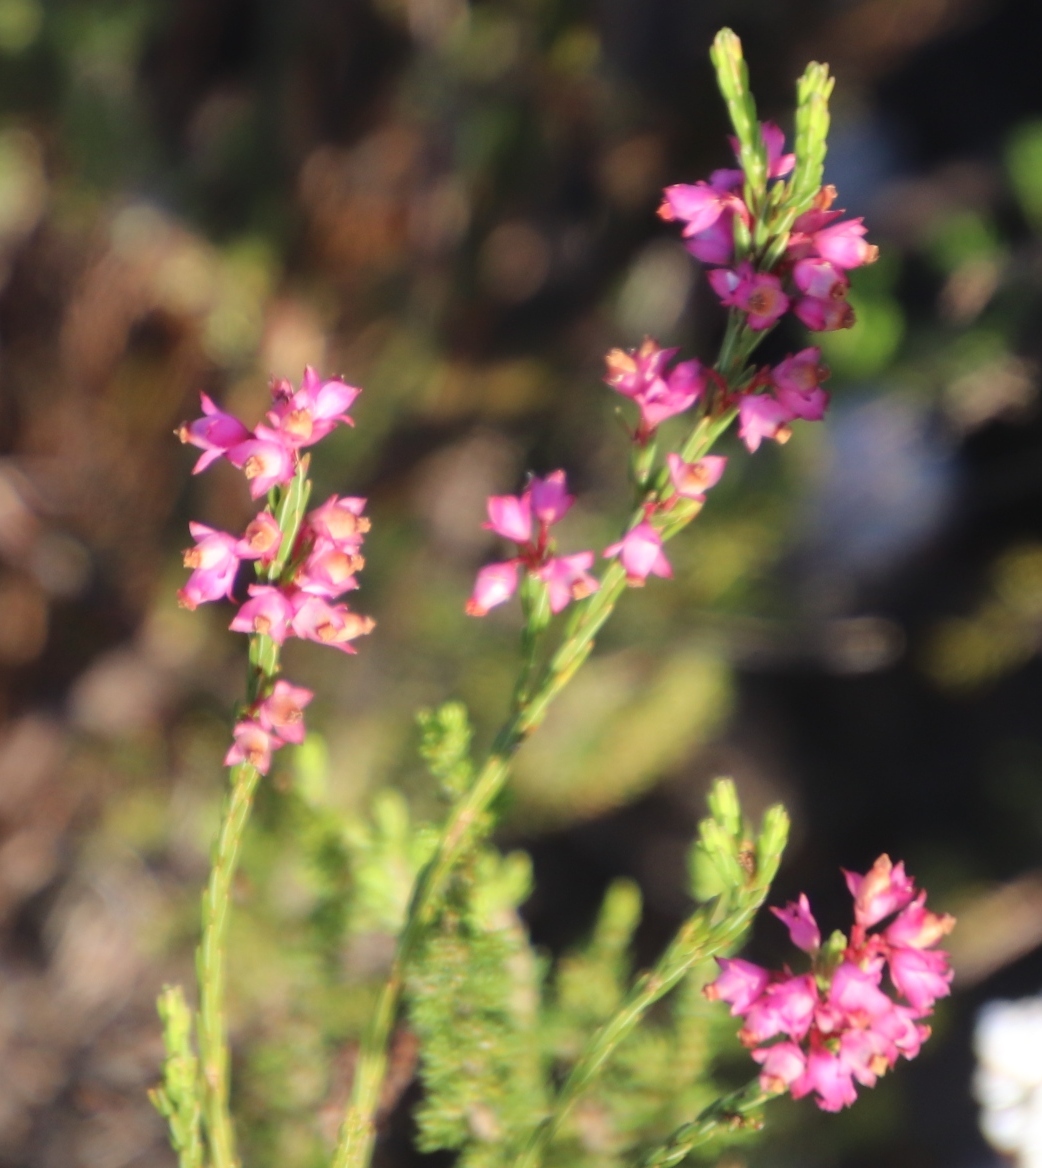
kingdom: Plantae
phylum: Tracheophyta
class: Magnoliopsida
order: Ericales
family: Ericaceae
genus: Erica
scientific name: Erica corifolia
